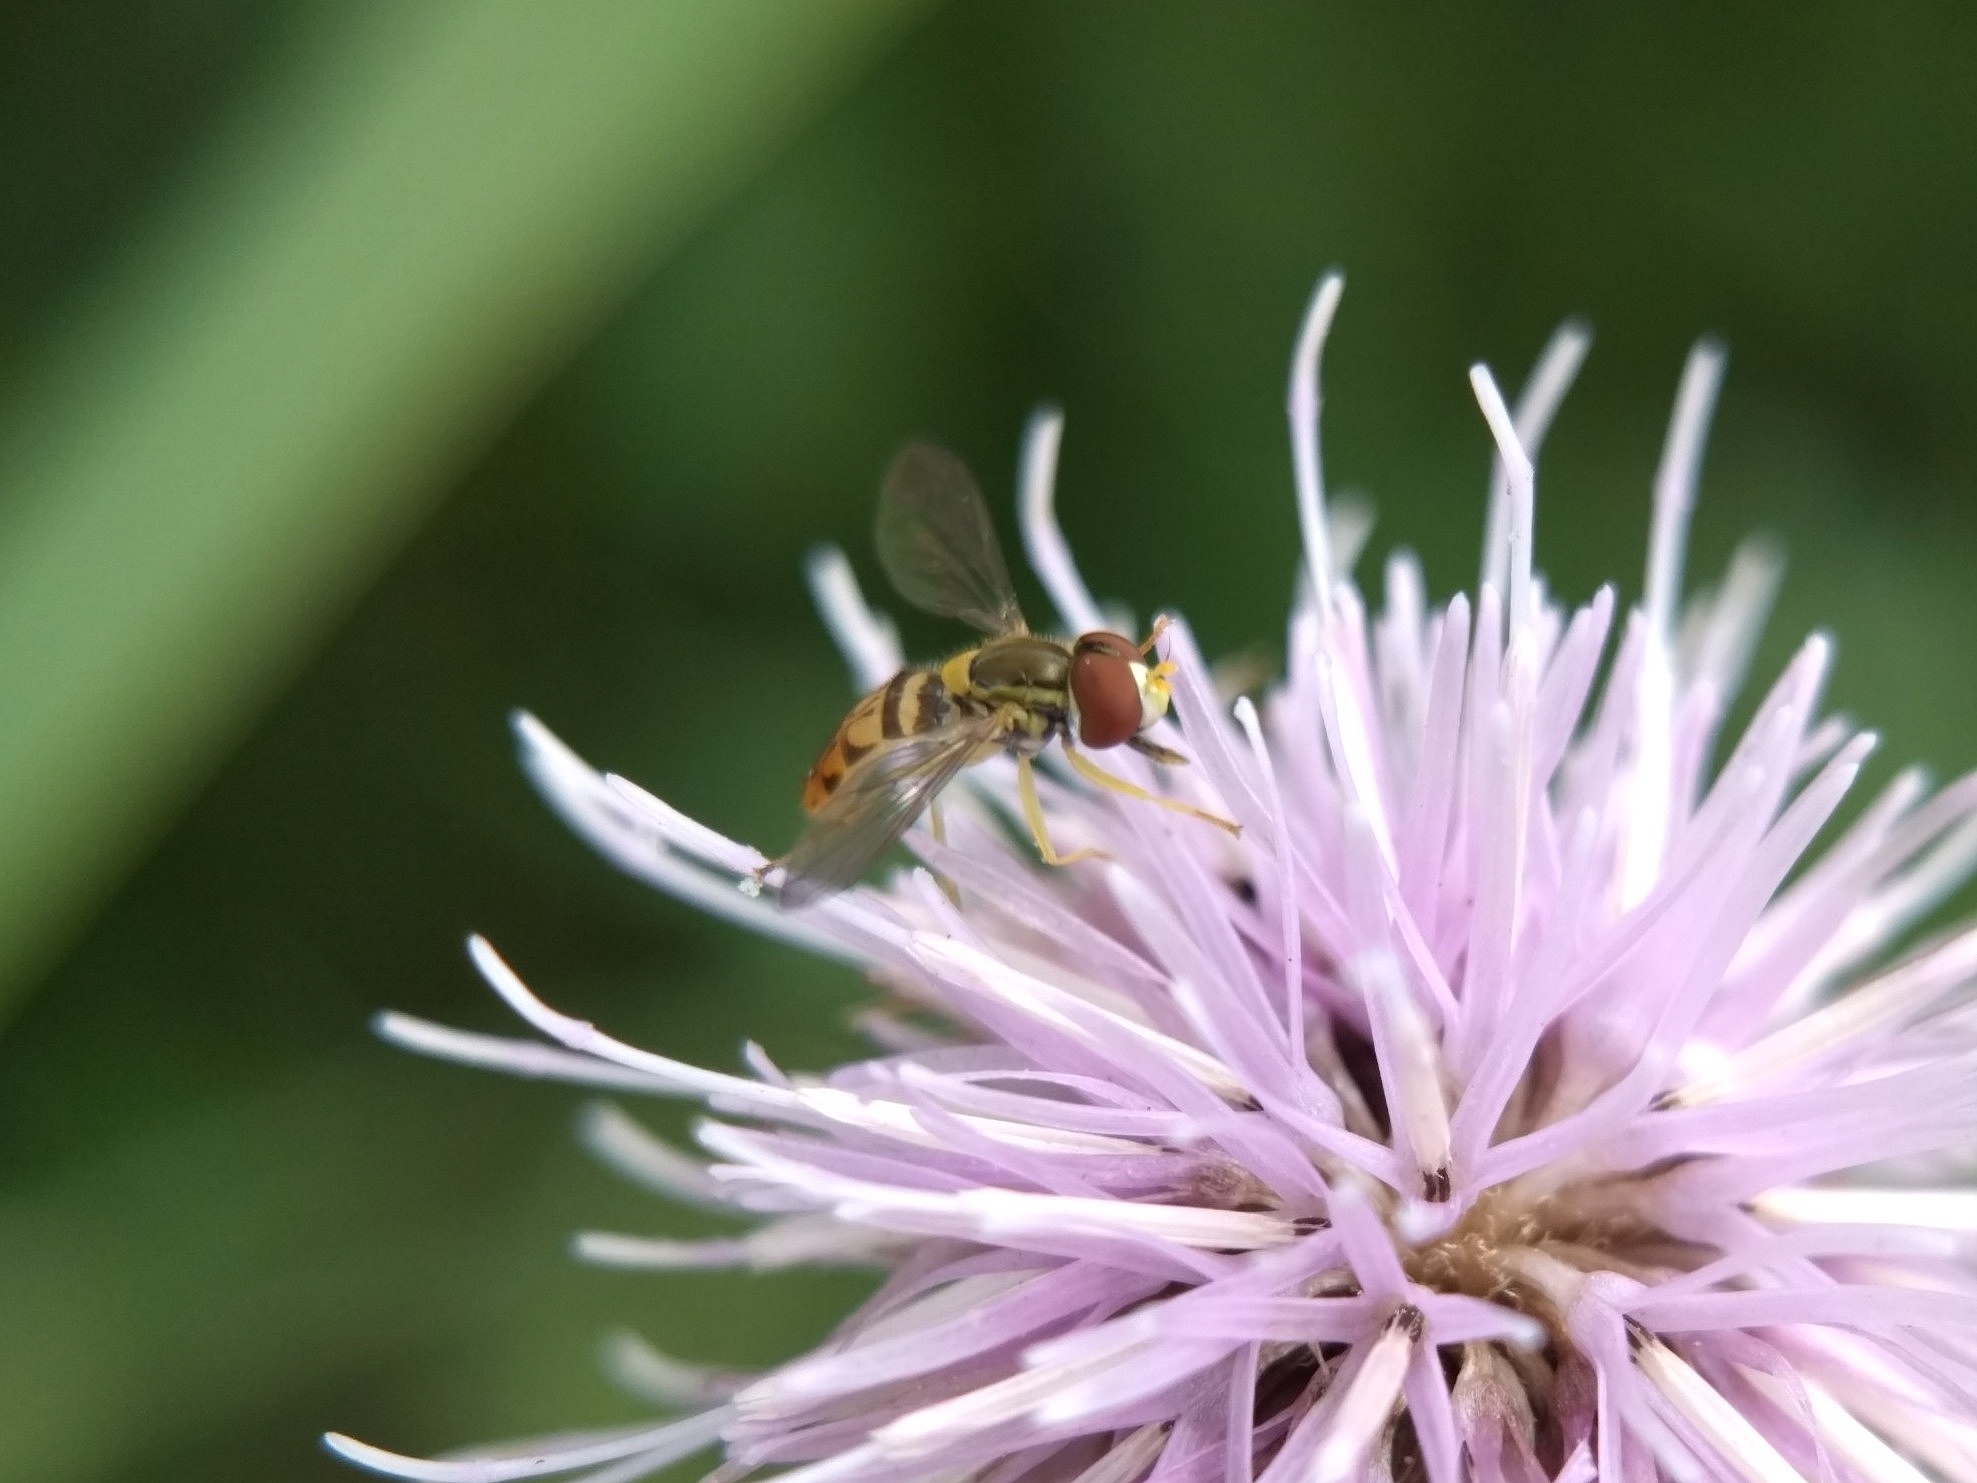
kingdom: Animalia
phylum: Arthropoda
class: Insecta
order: Diptera
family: Syrphidae
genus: Toxomerus
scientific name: Toxomerus marginatus
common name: Syrphid fly
